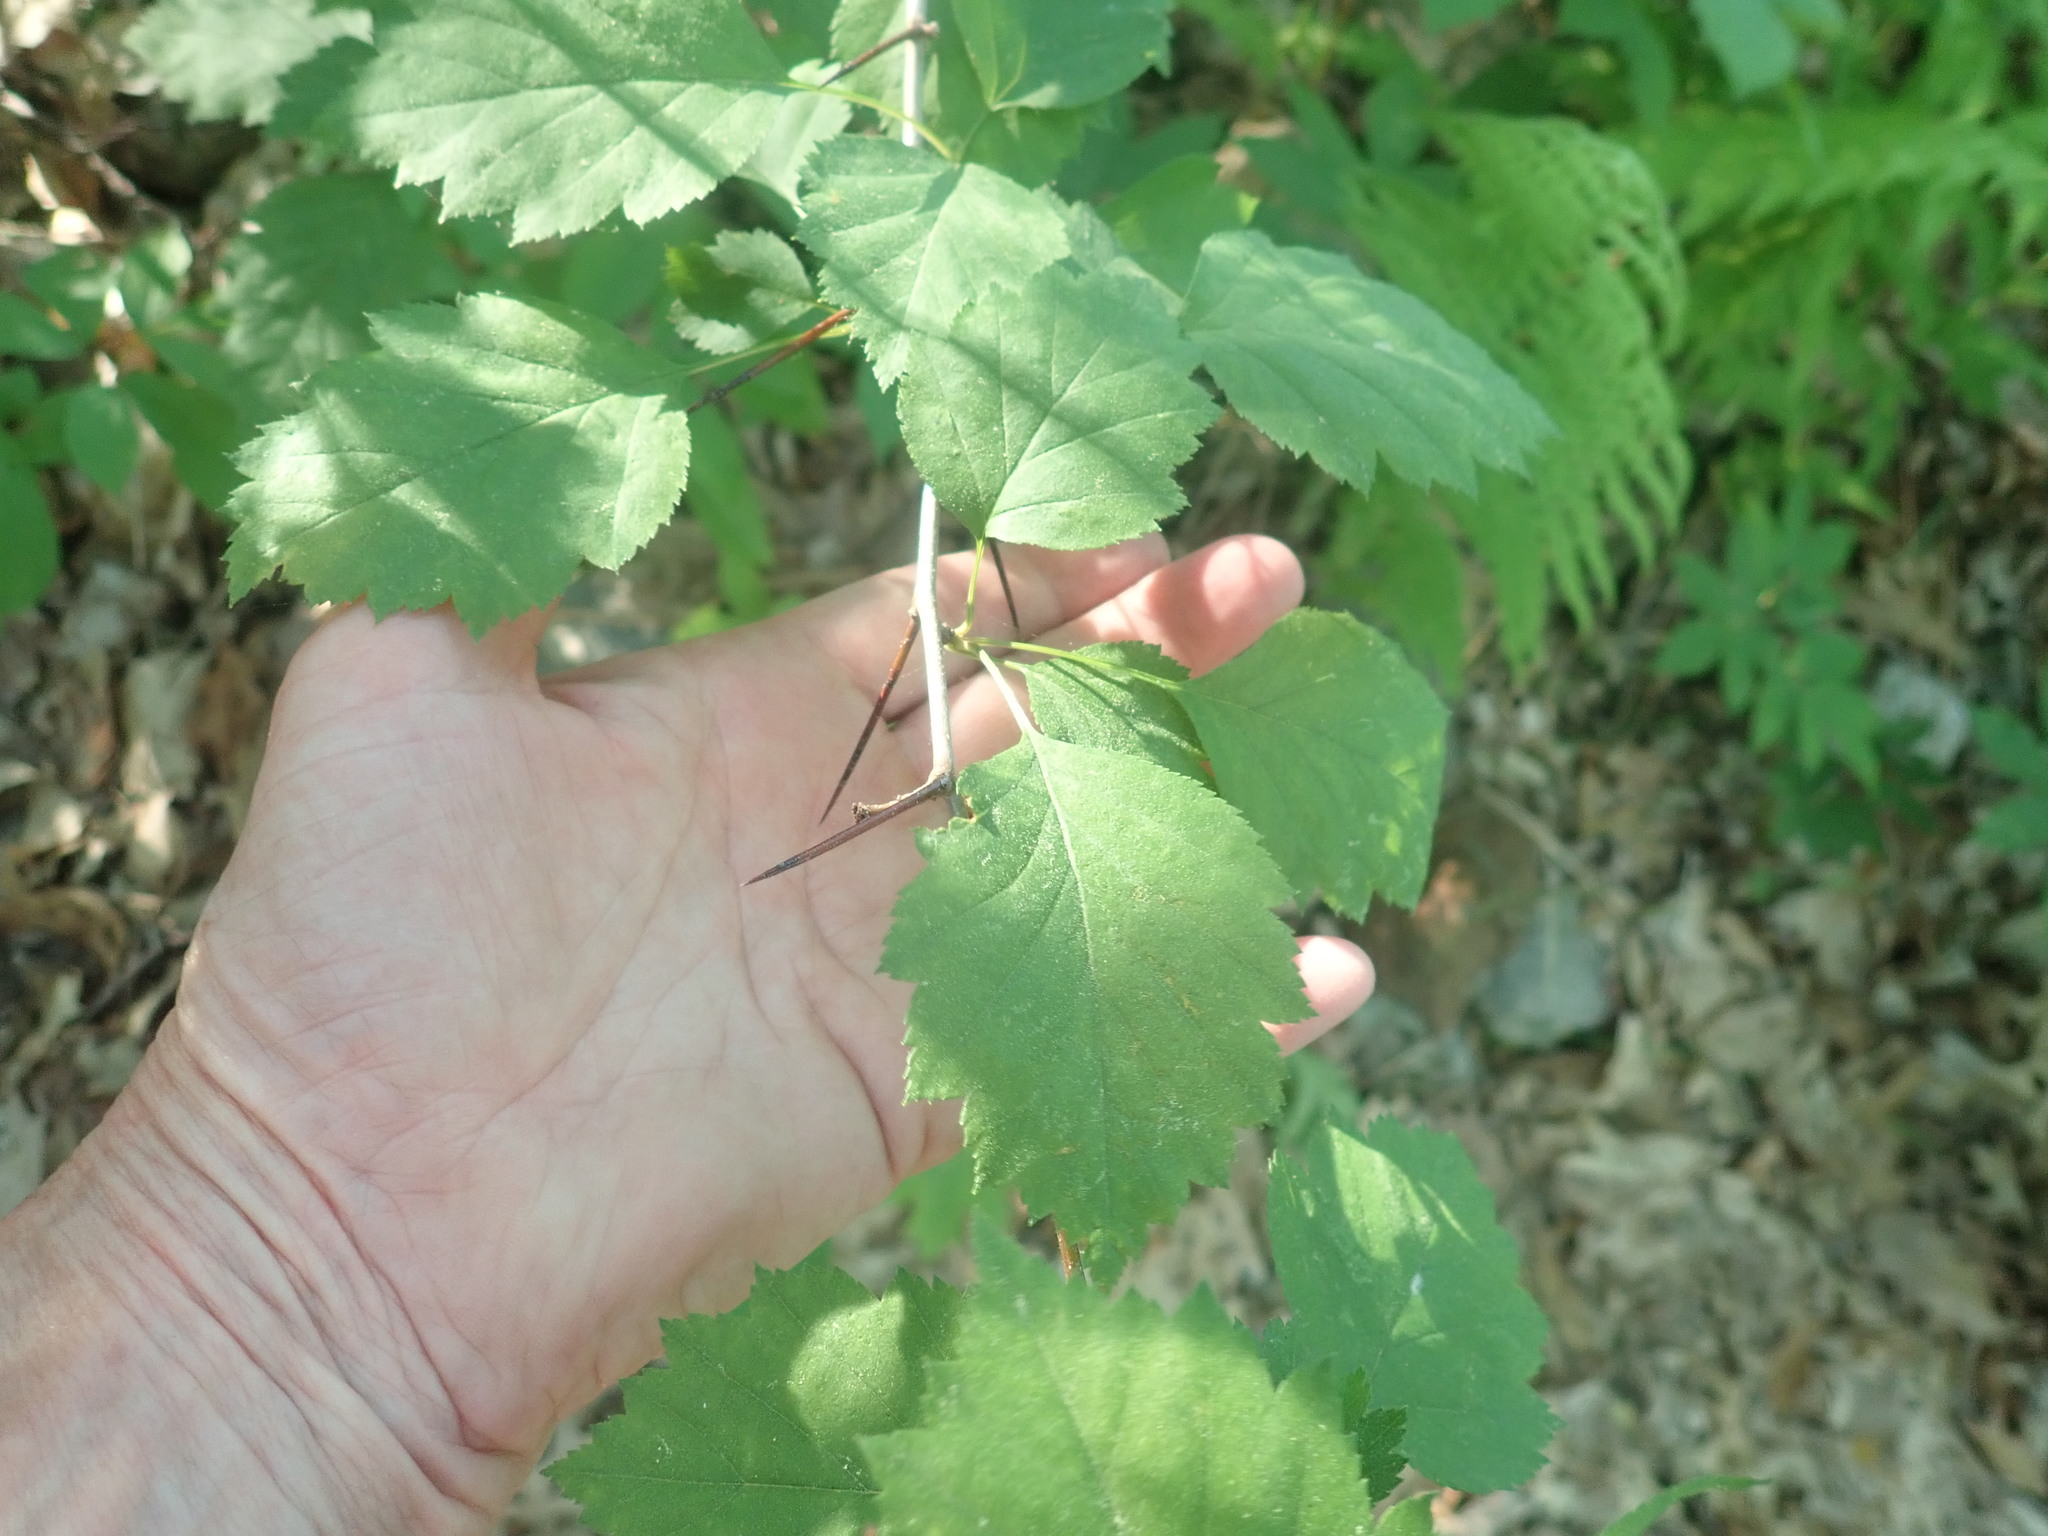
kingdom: Plantae
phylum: Tracheophyta
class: Magnoliopsida
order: Rosales
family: Rosaceae
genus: Crataegus
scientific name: Crataegus
